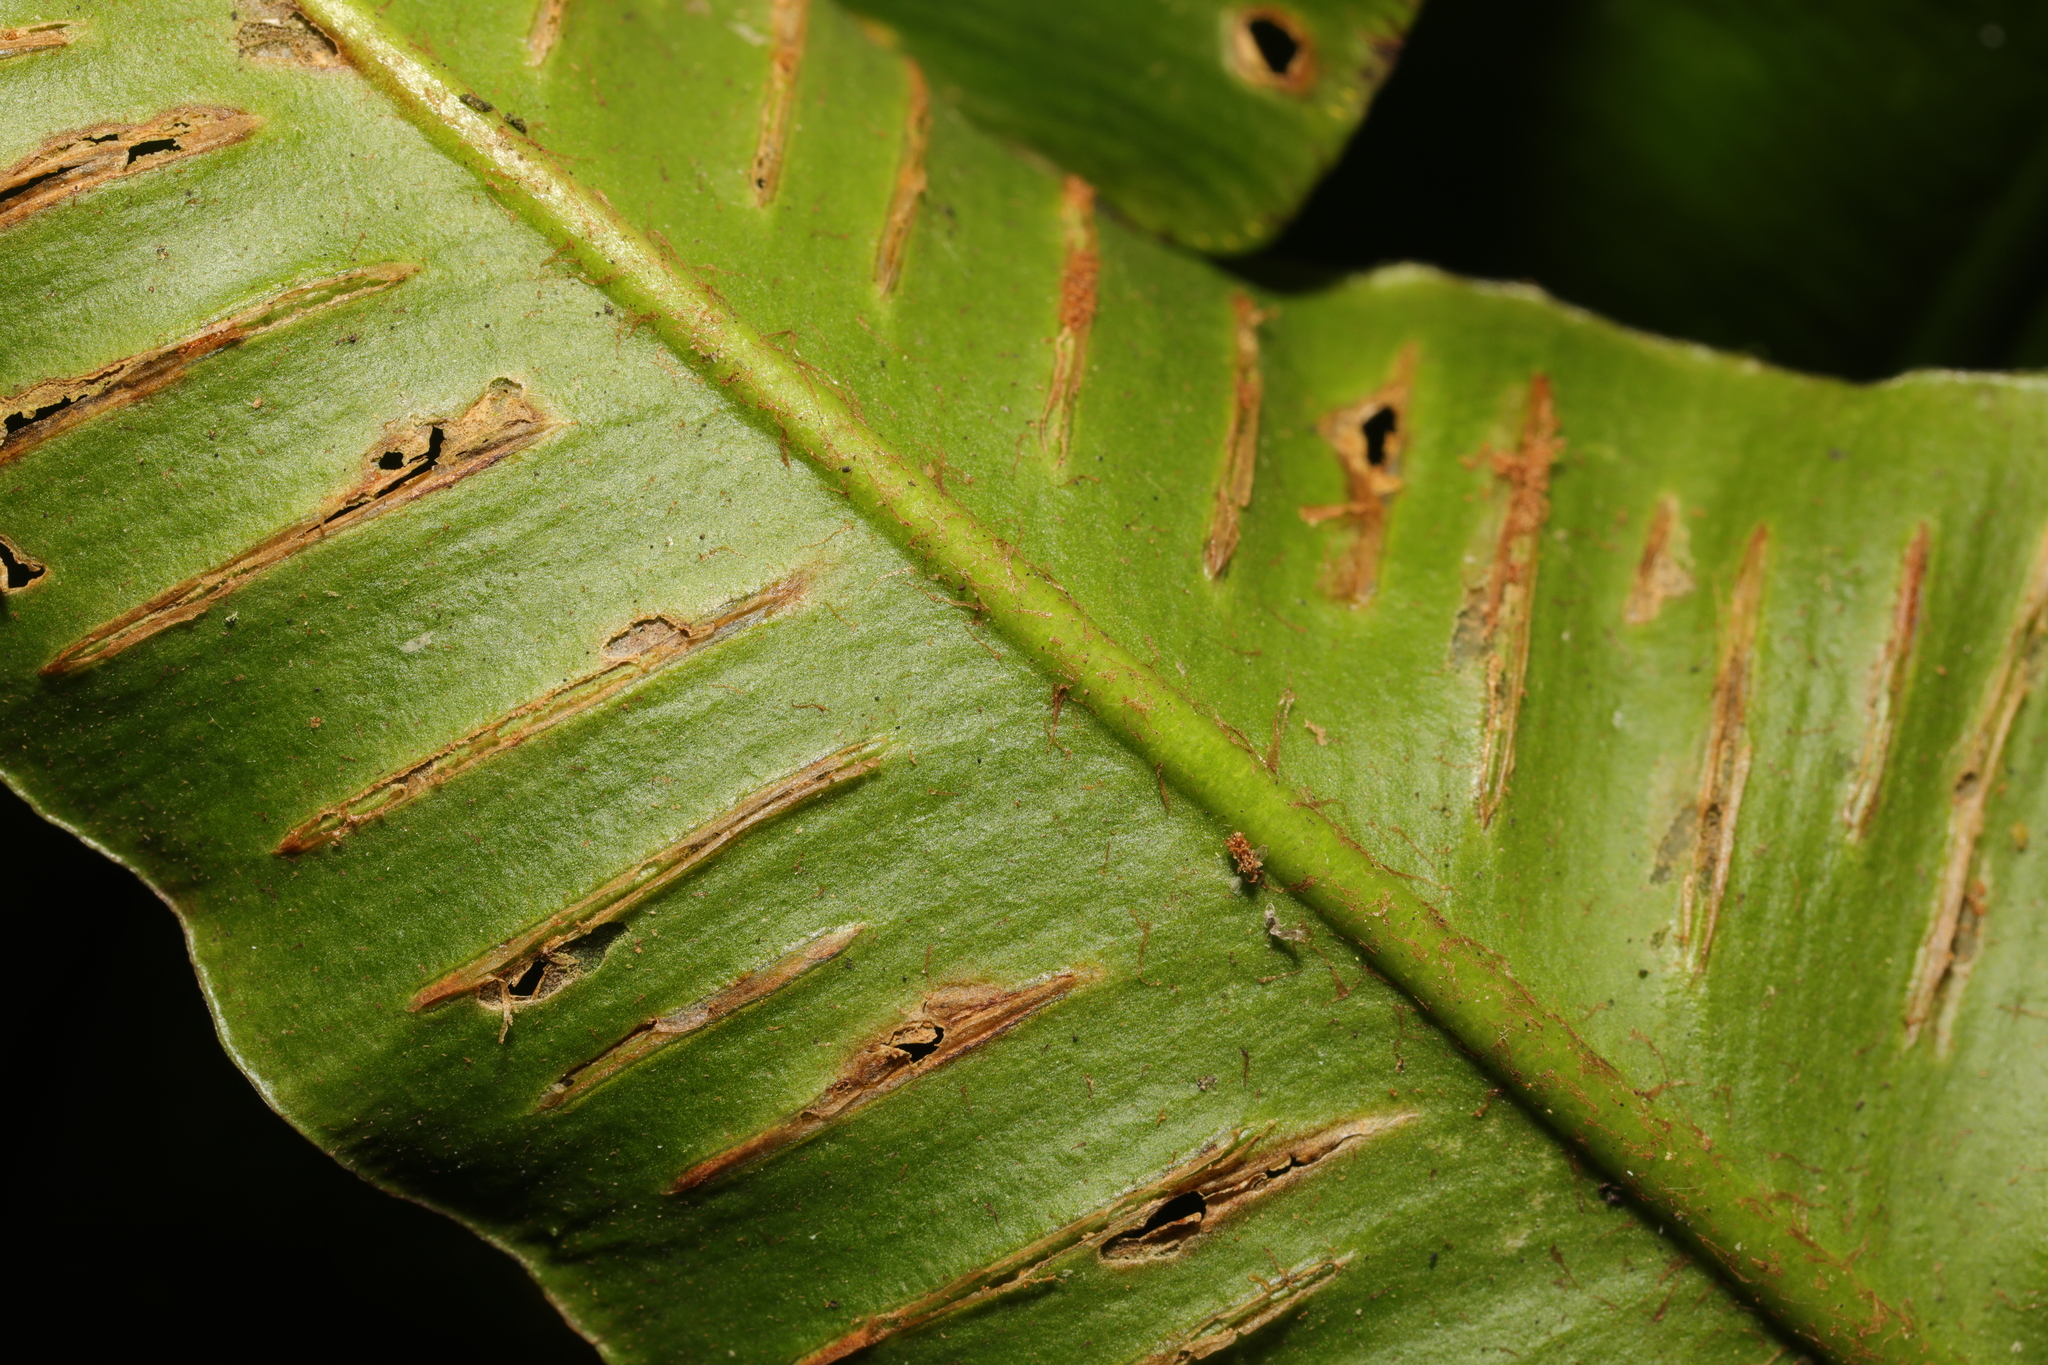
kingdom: Plantae
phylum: Tracheophyta
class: Polypodiopsida
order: Polypodiales
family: Aspleniaceae
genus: Asplenium
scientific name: Asplenium scolopendrium
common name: Hart's-tongue fern
